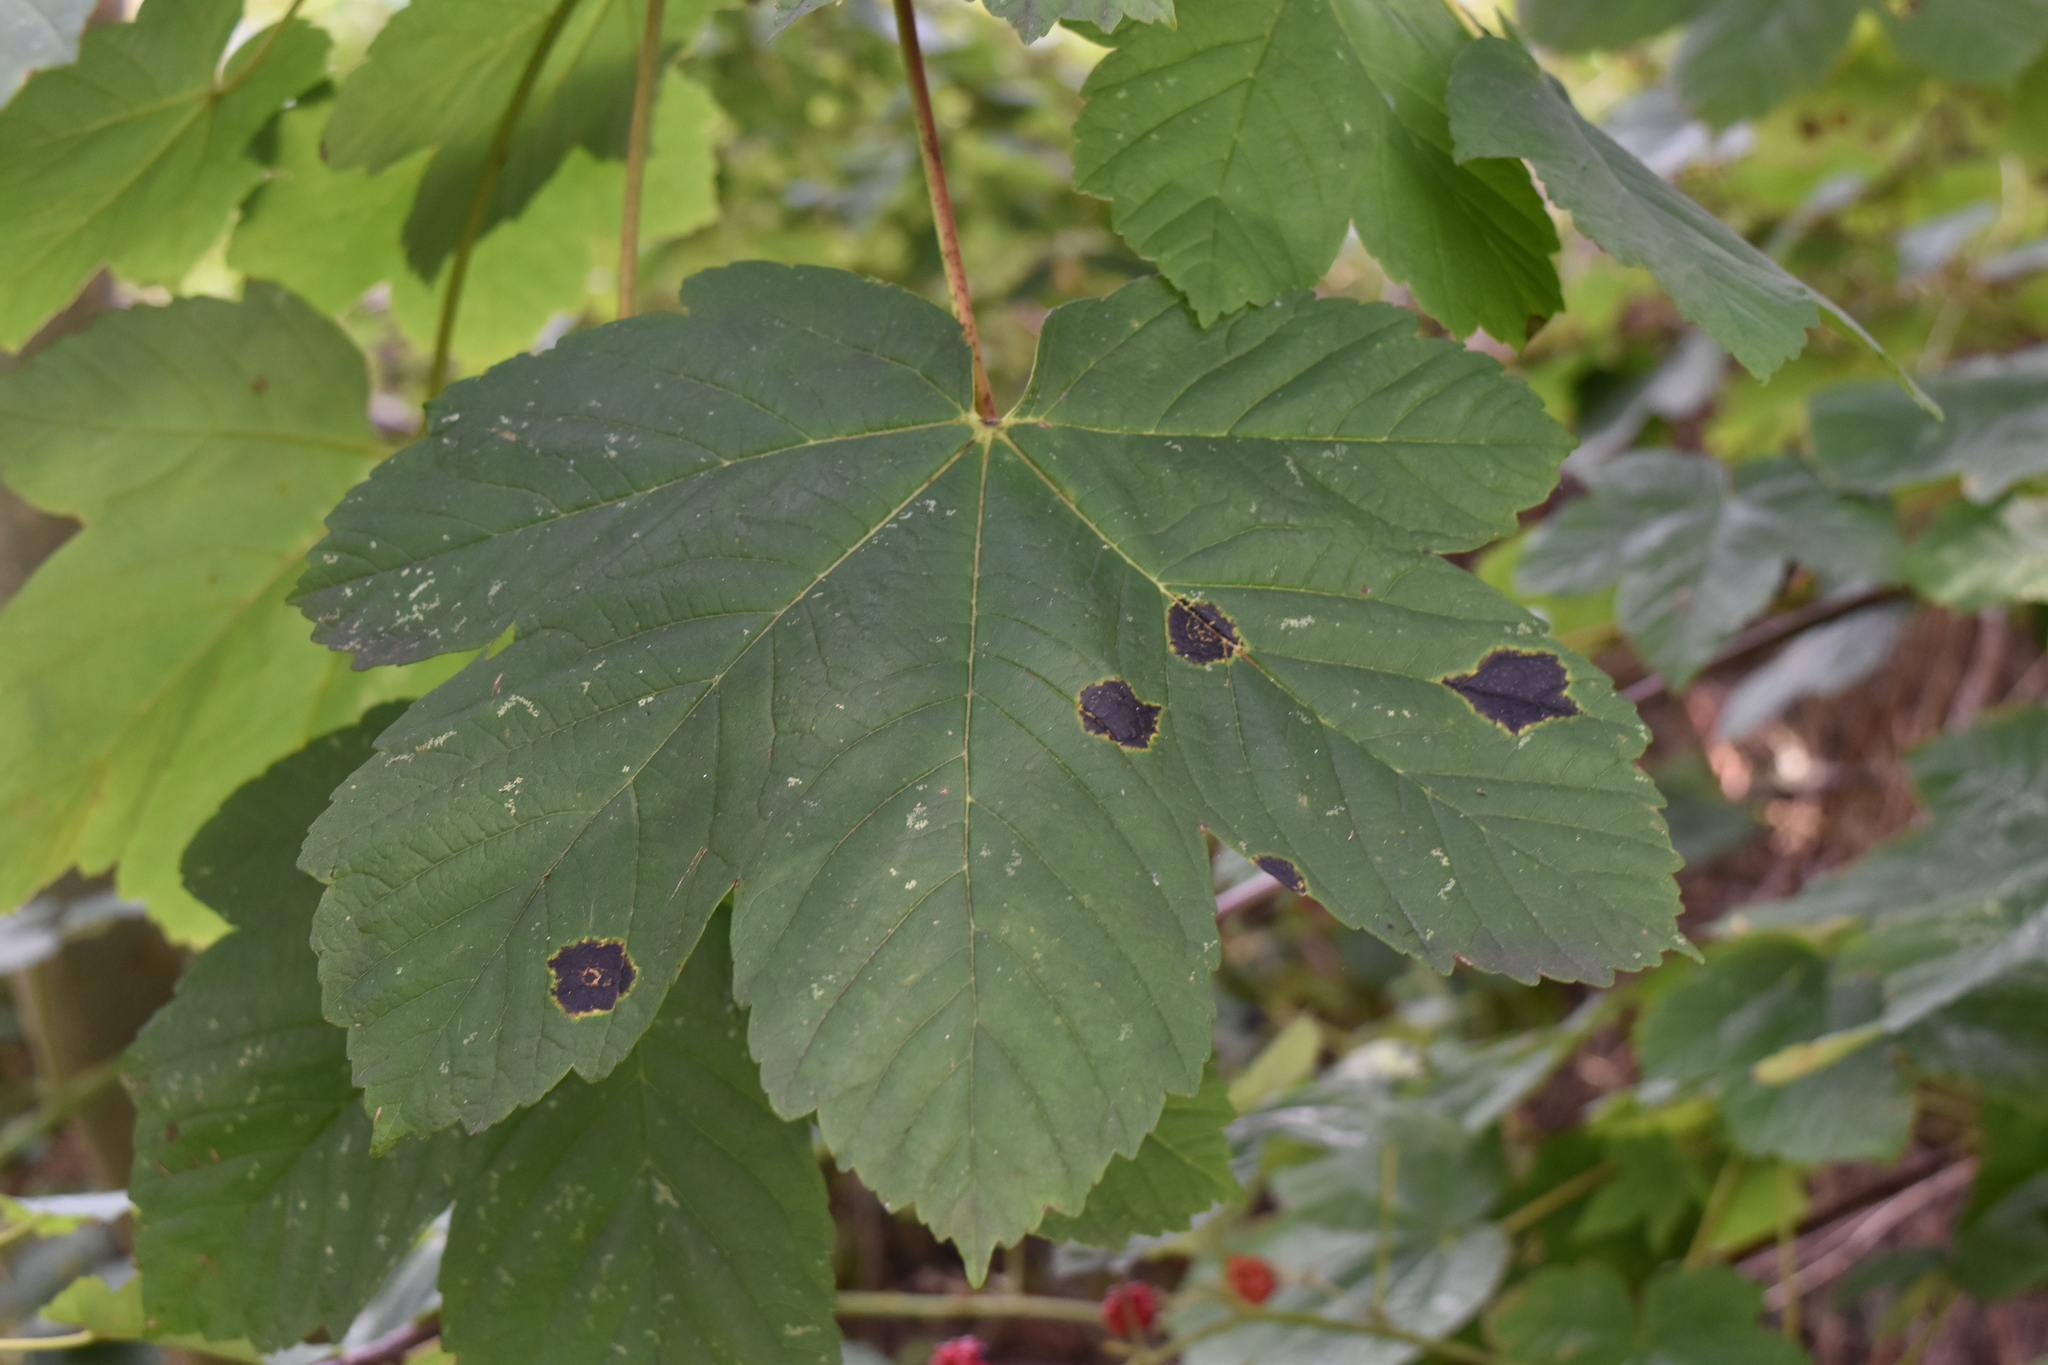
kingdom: Fungi
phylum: Ascomycota
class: Leotiomycetes
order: Rhytismatales
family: Rhytismataceae
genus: Rhytisma
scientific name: Rhytisma acerinum
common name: European tar spot
